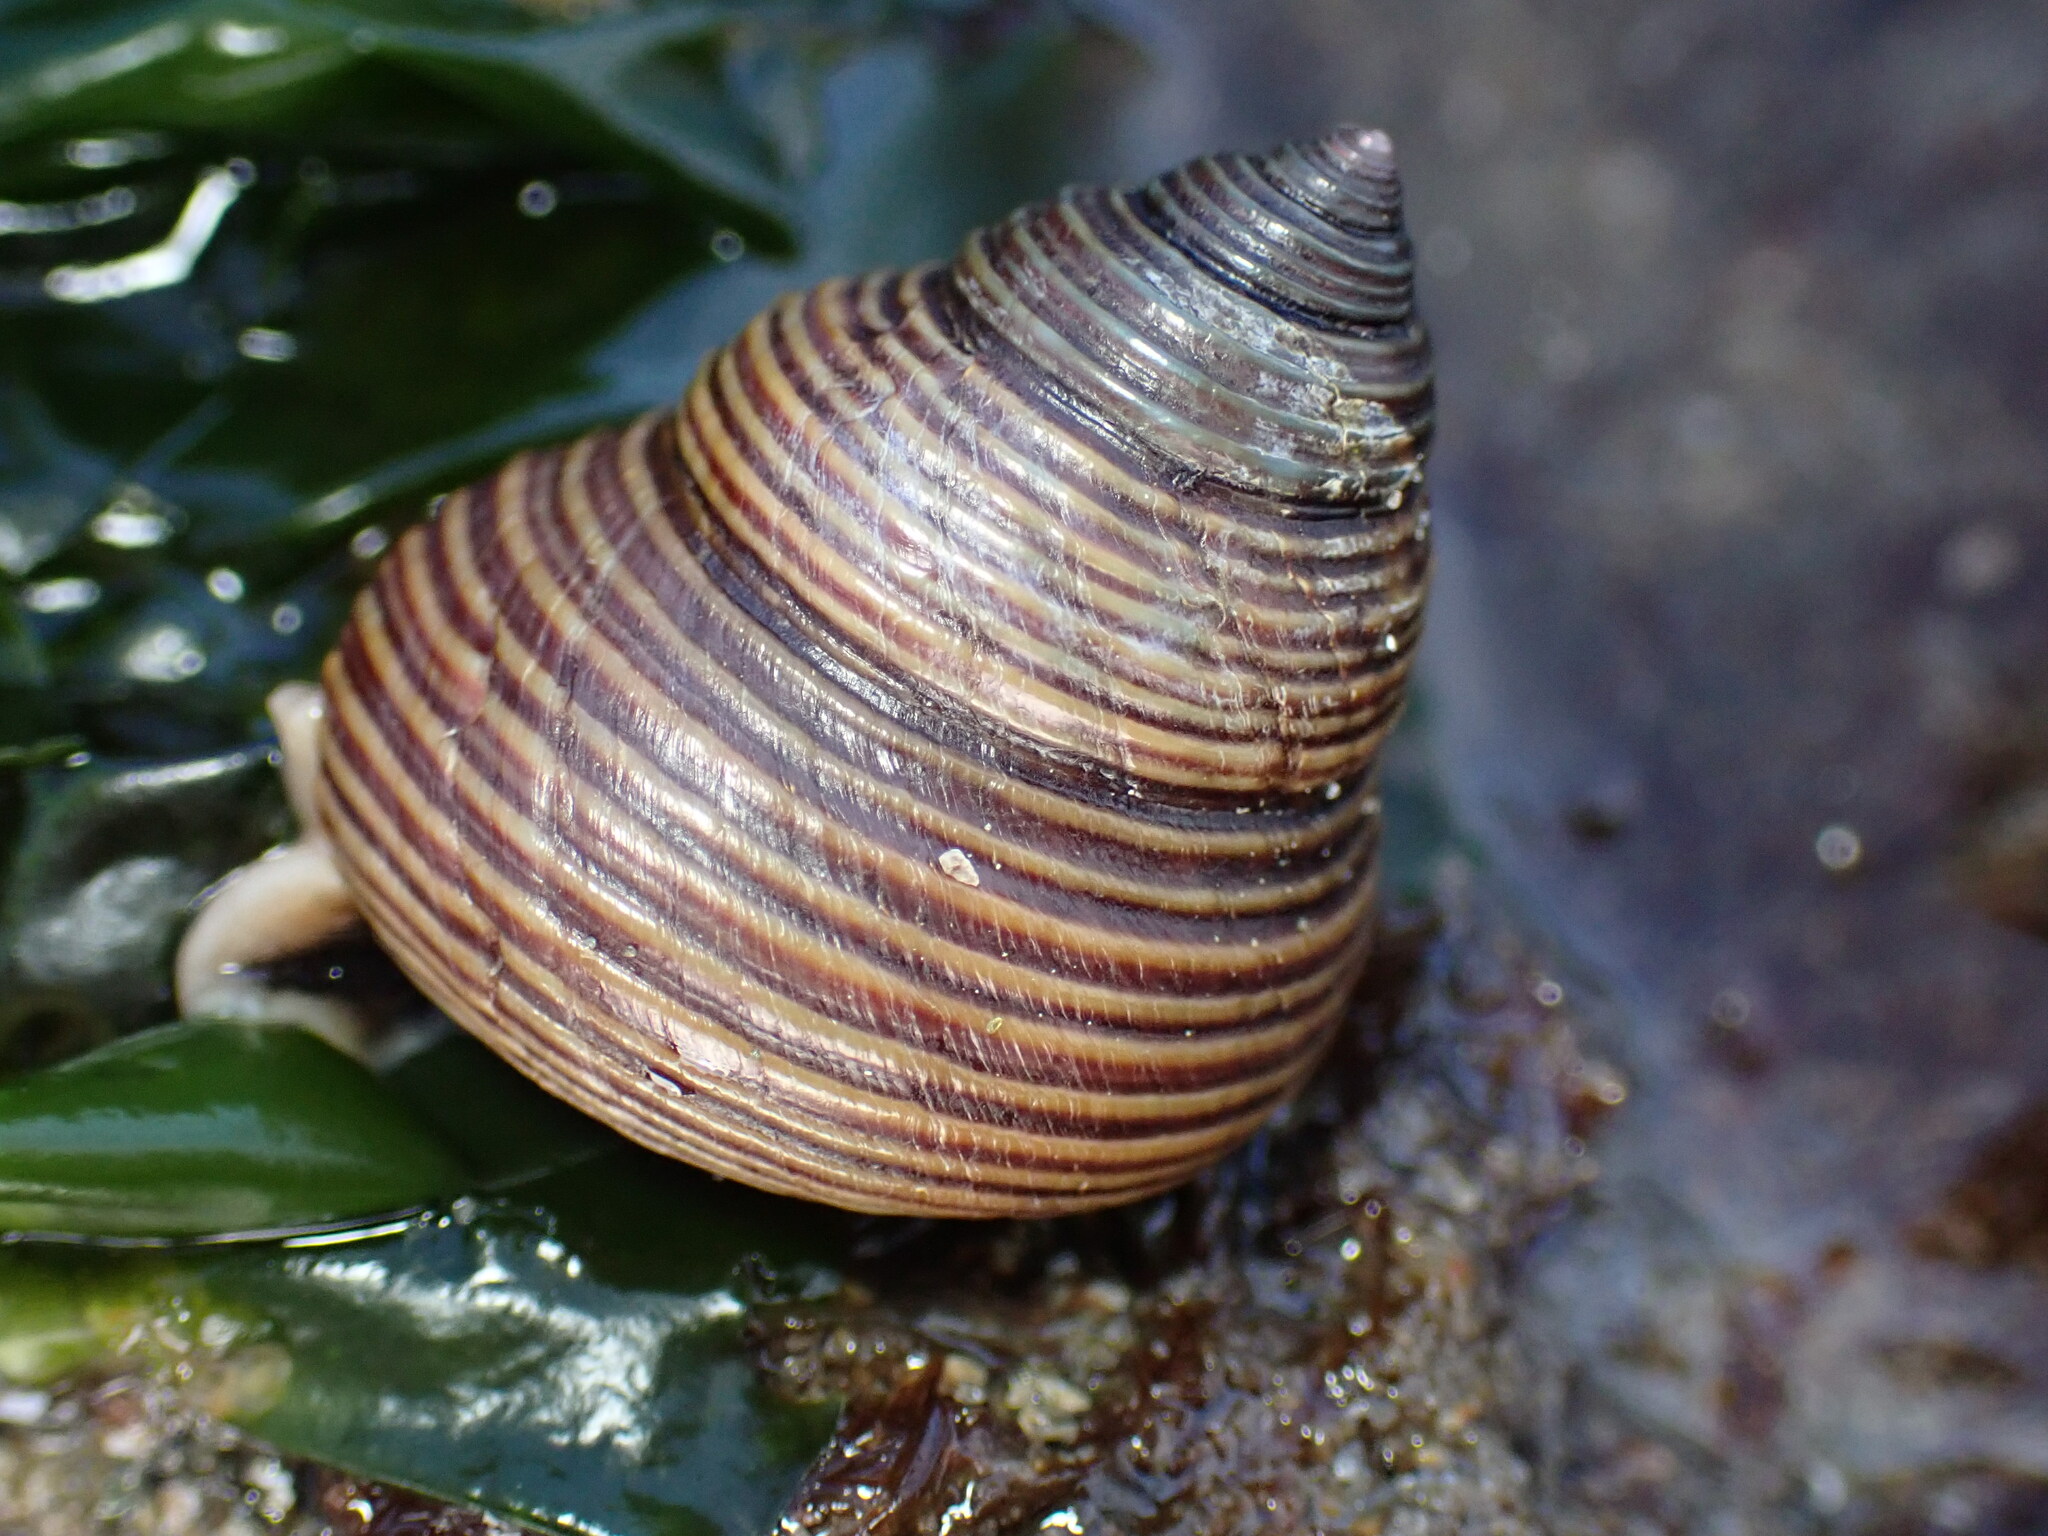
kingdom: Animalia
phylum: Mollusca
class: Gastropoda
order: Trochida
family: Calliostomatidae
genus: Calliostoma
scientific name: Calliostoma ligatum
